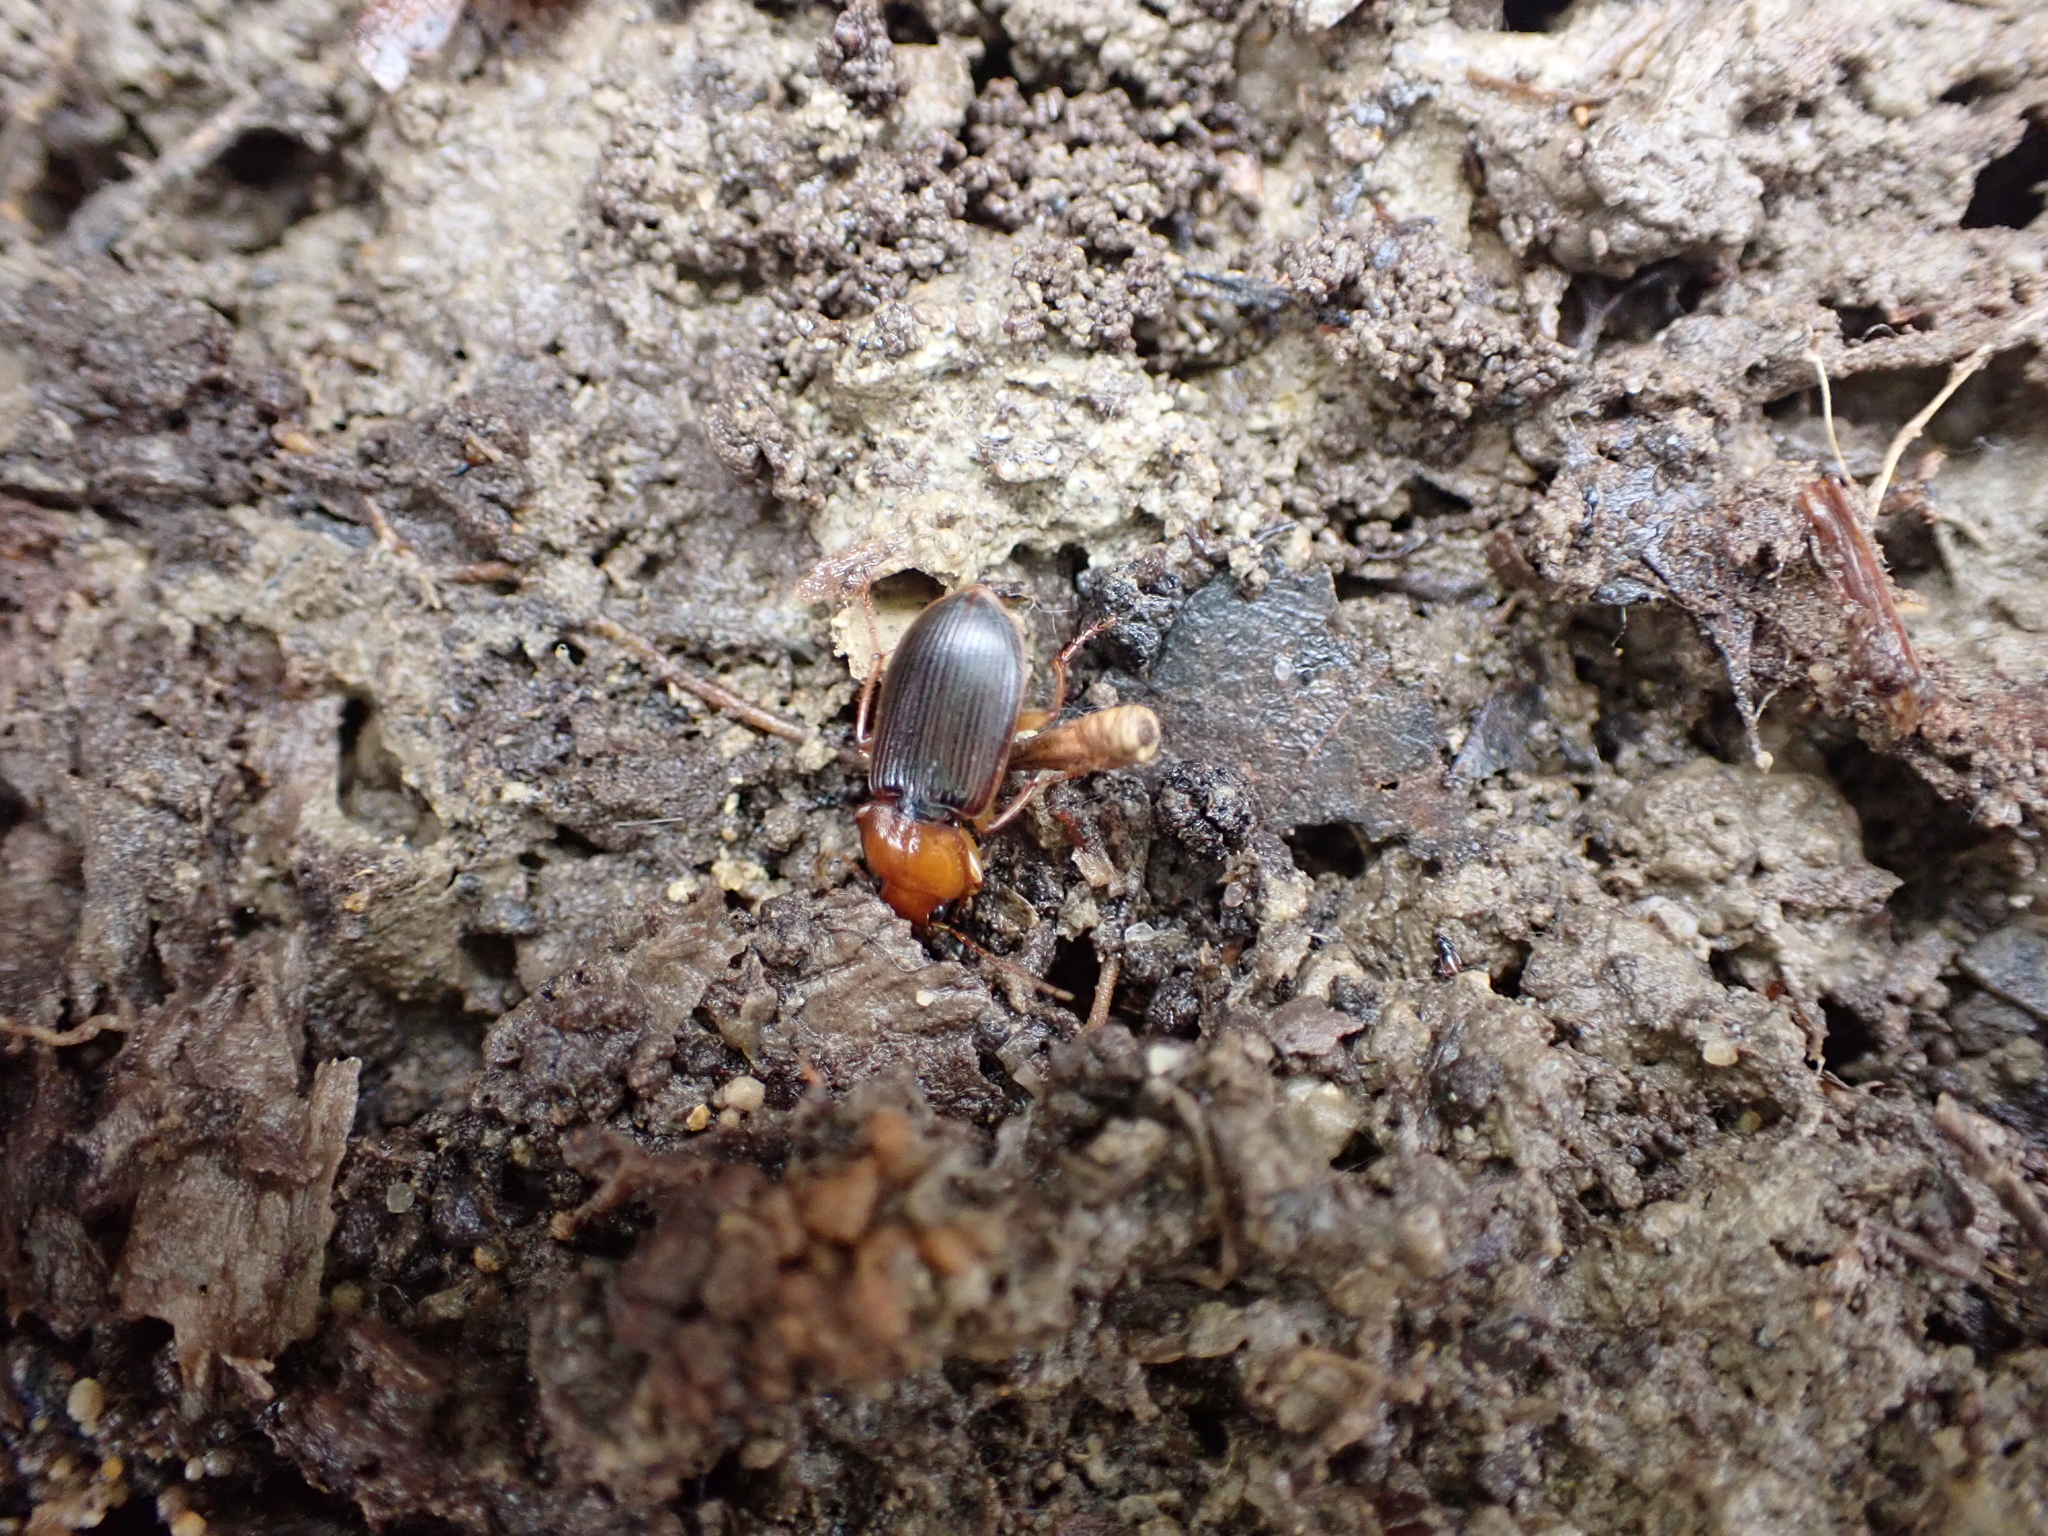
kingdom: Animalia
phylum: Arthropoda
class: Insecta
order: Coleoptera
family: Carabidae
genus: Amphasia
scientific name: Amphasia interstitialis
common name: Red-headed ground beetle
